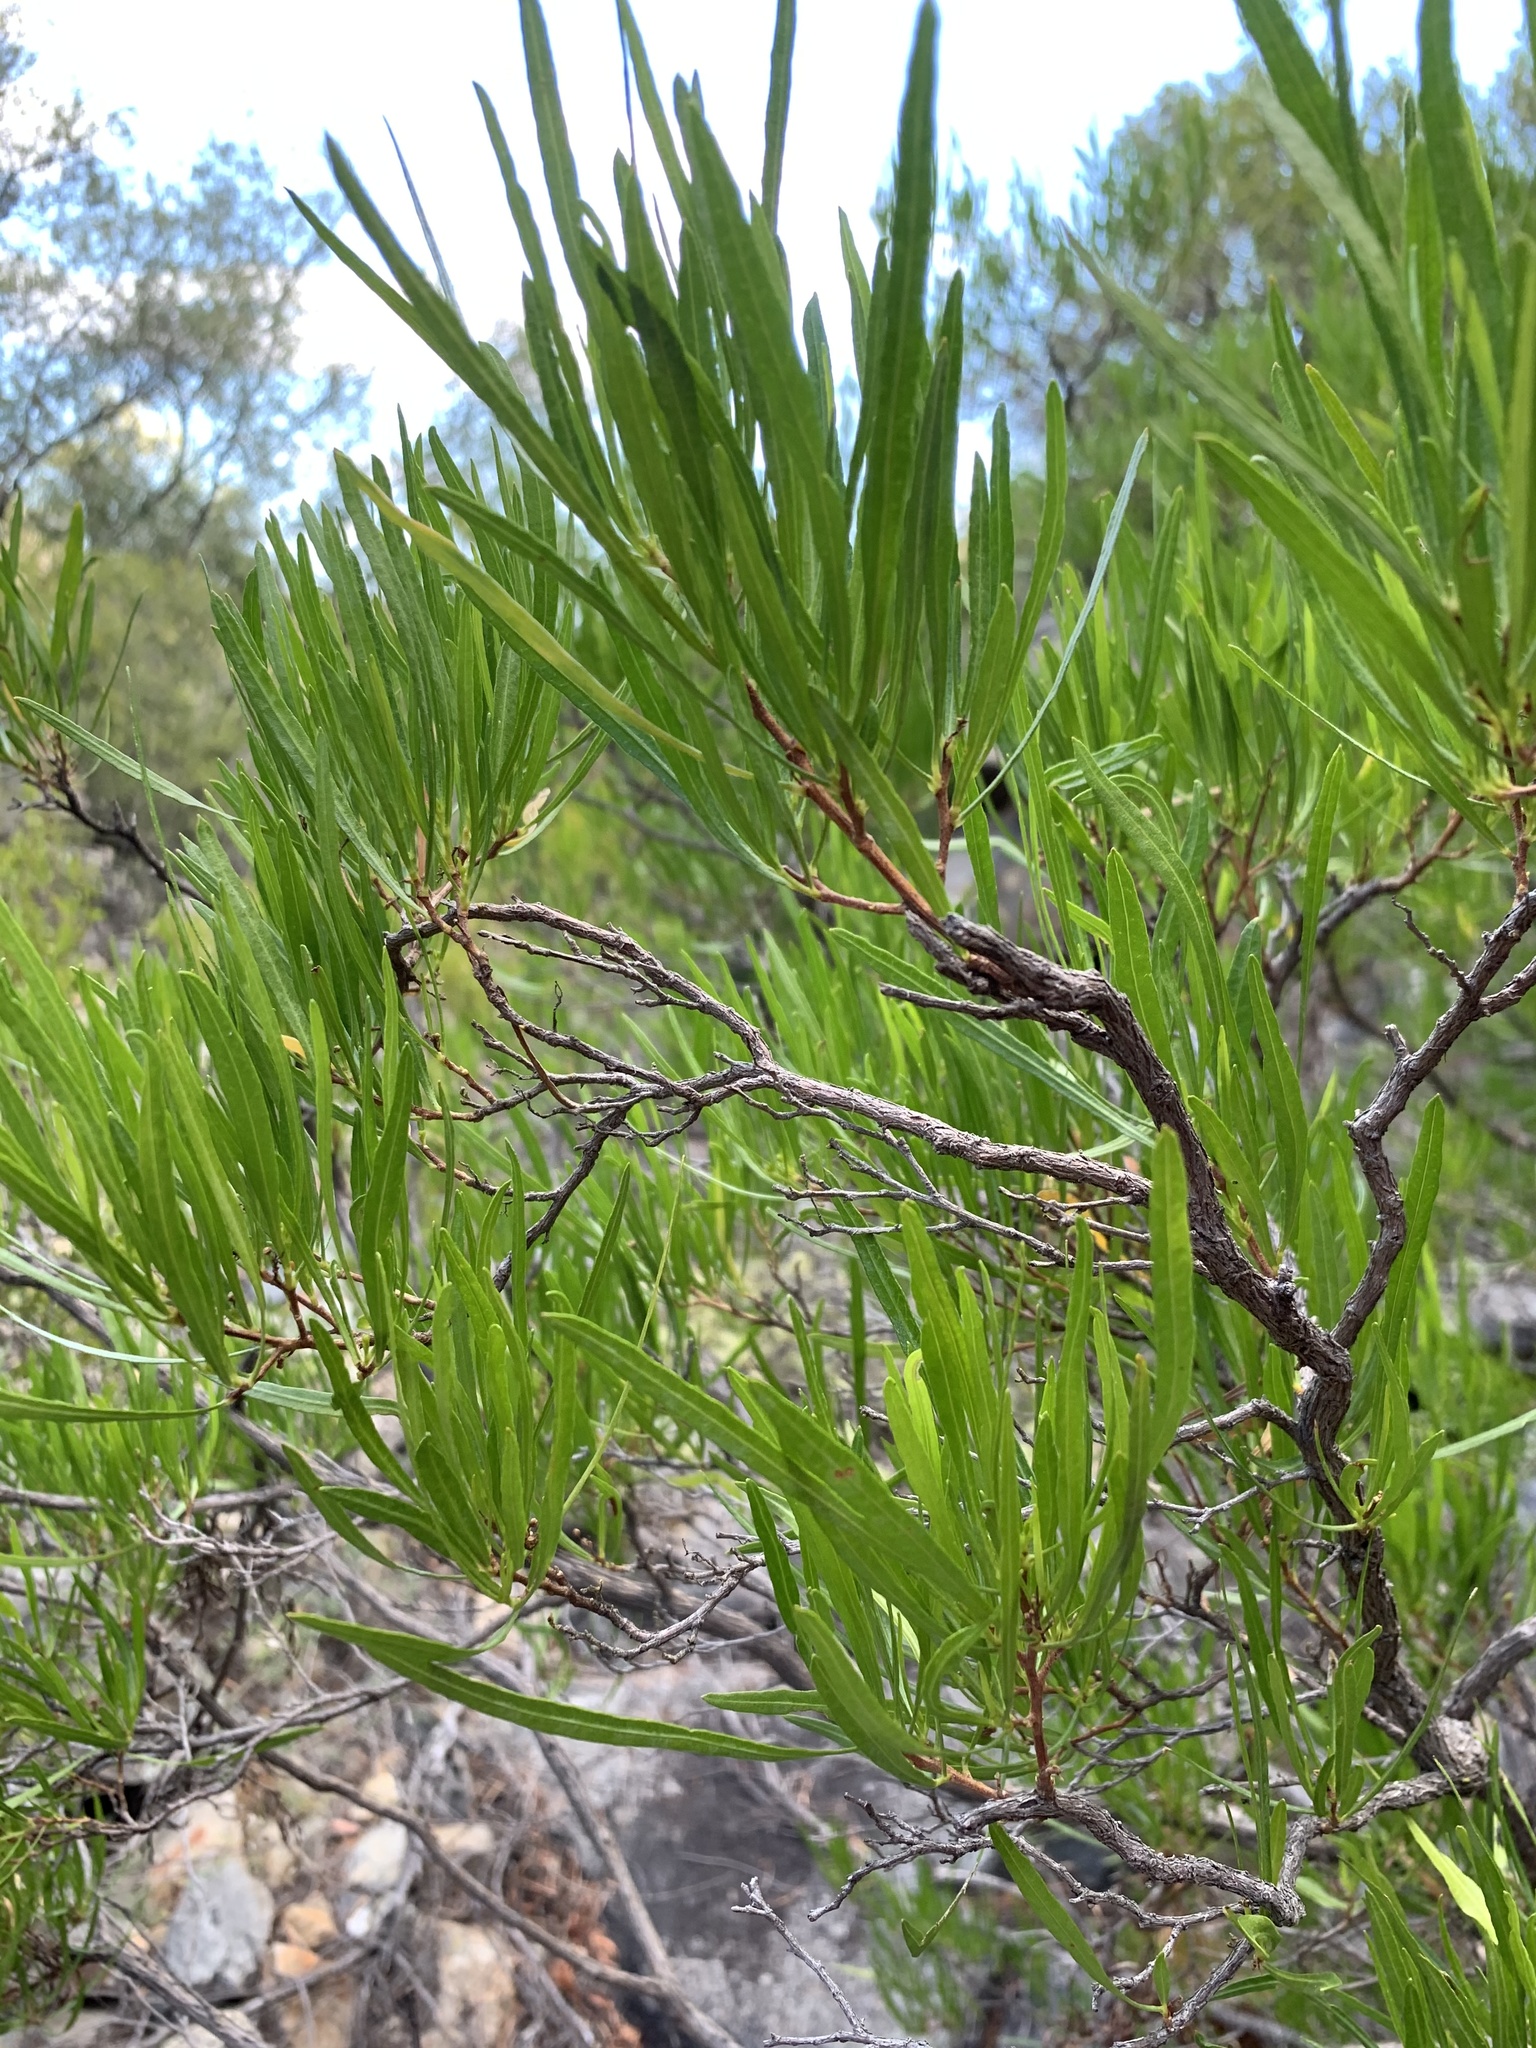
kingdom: Plantae
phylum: Tracheophyta
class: Magnoliopsida
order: Sapindales
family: Sapindaceae
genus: Dodonaea
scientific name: Dodonaea viscosa
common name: Hopbush
